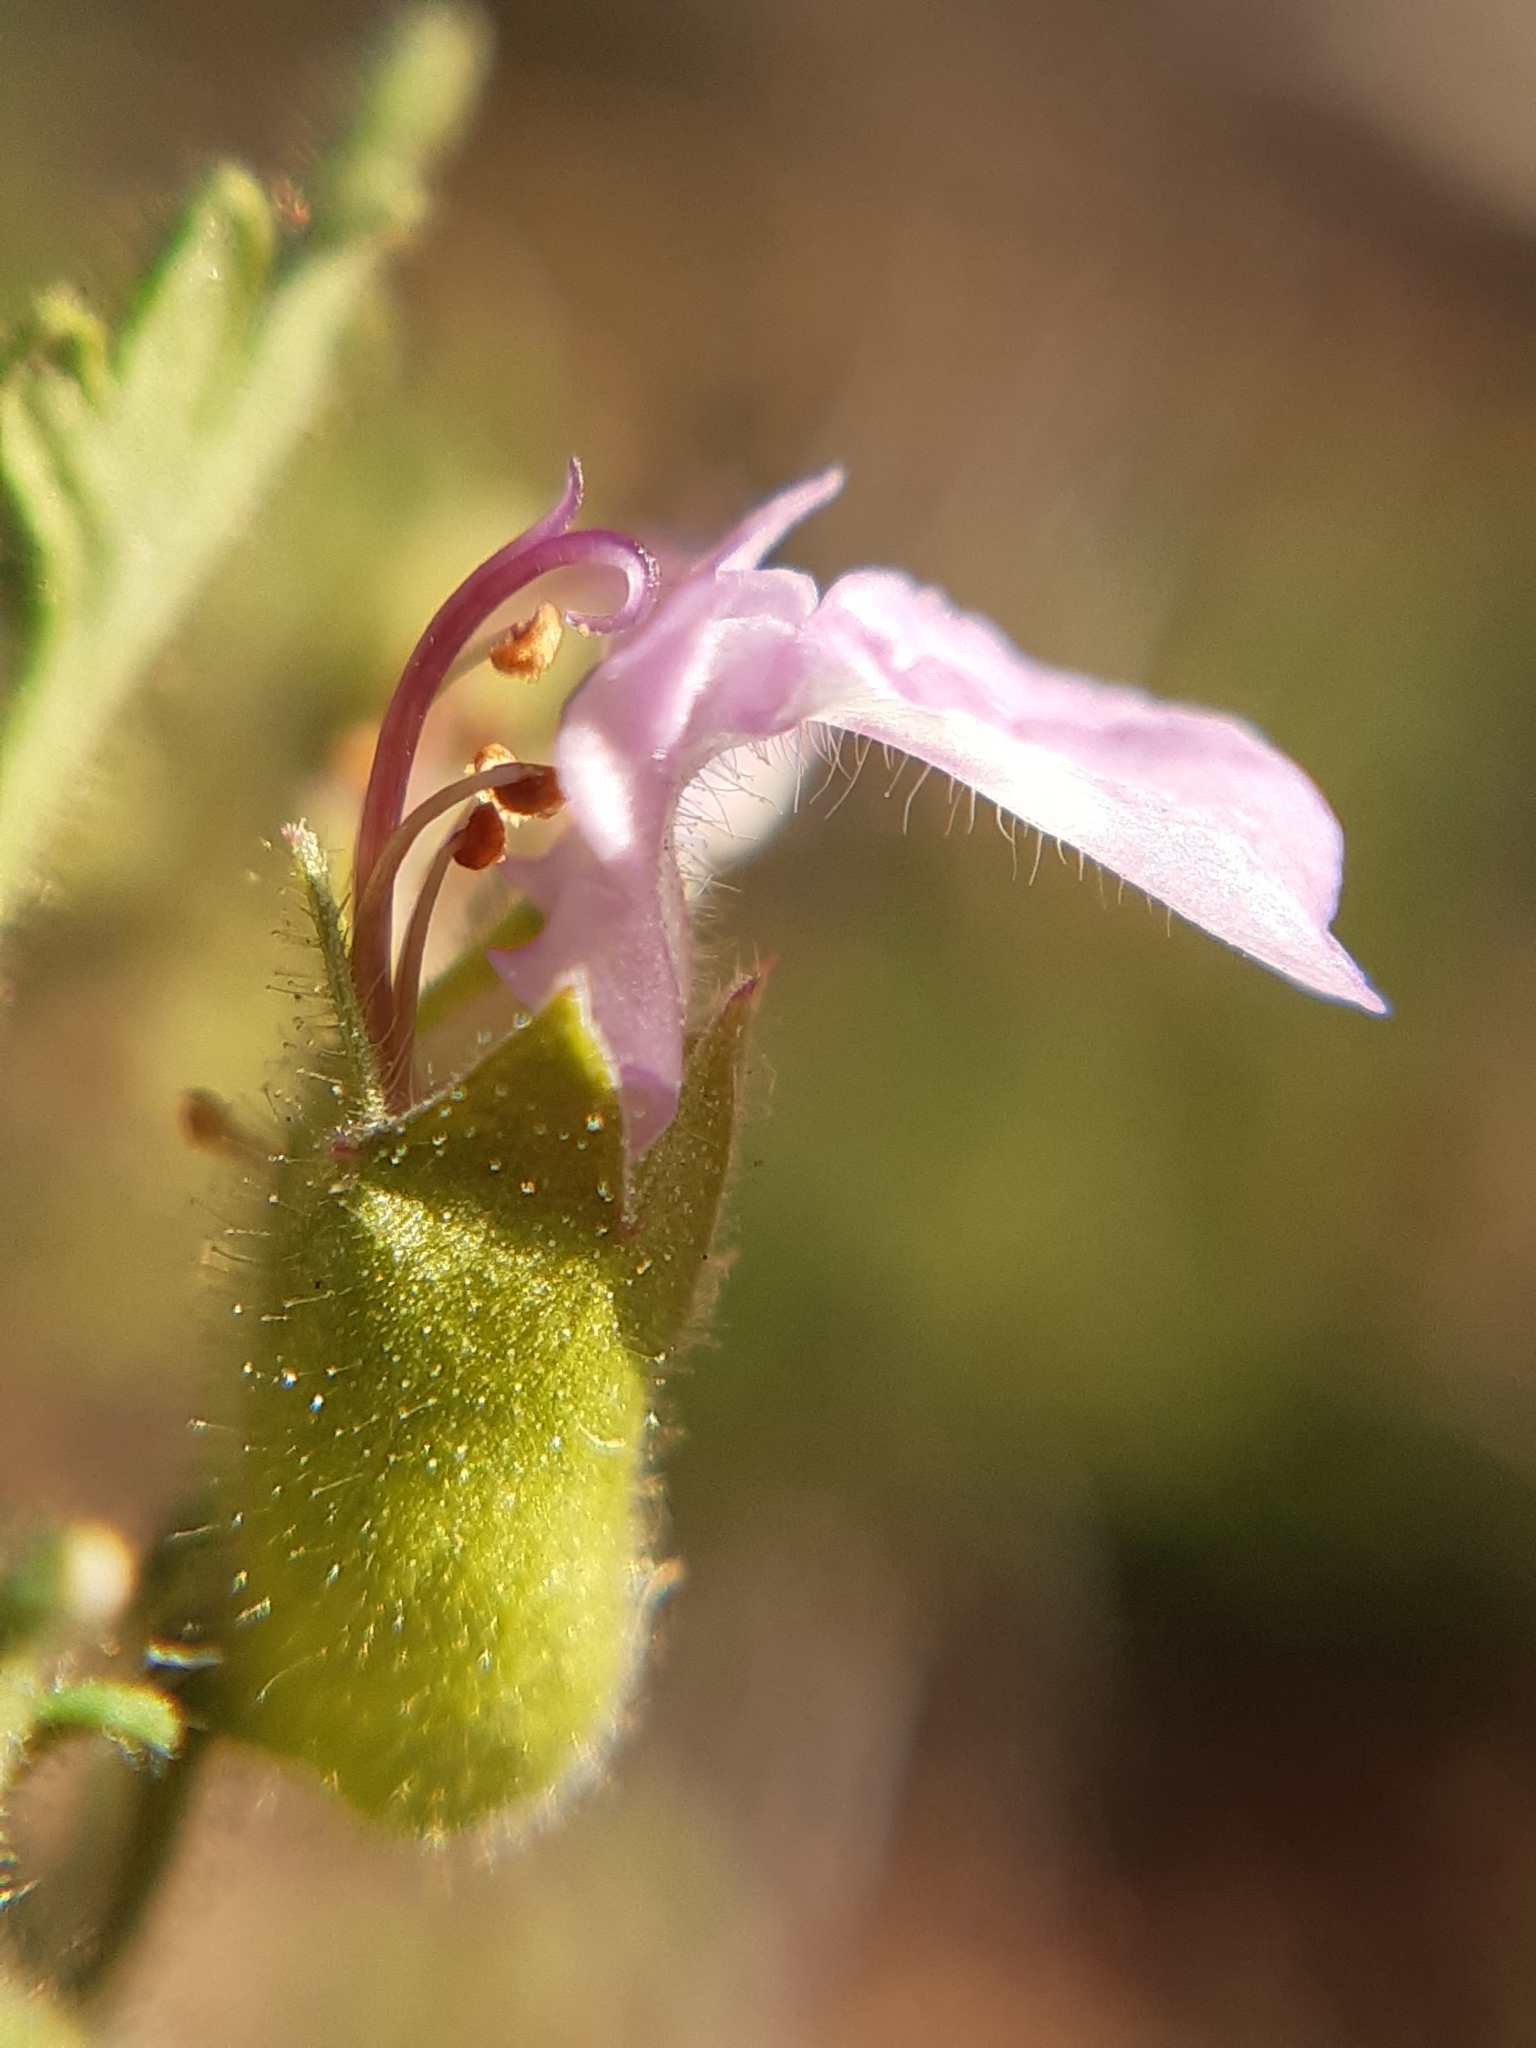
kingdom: Plantae
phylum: Tracheophyta
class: Magnoliopsida
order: Lamiales
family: Lamiaceae
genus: Teucrium
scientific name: Teucrium botrys
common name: Cut-leaved germander
